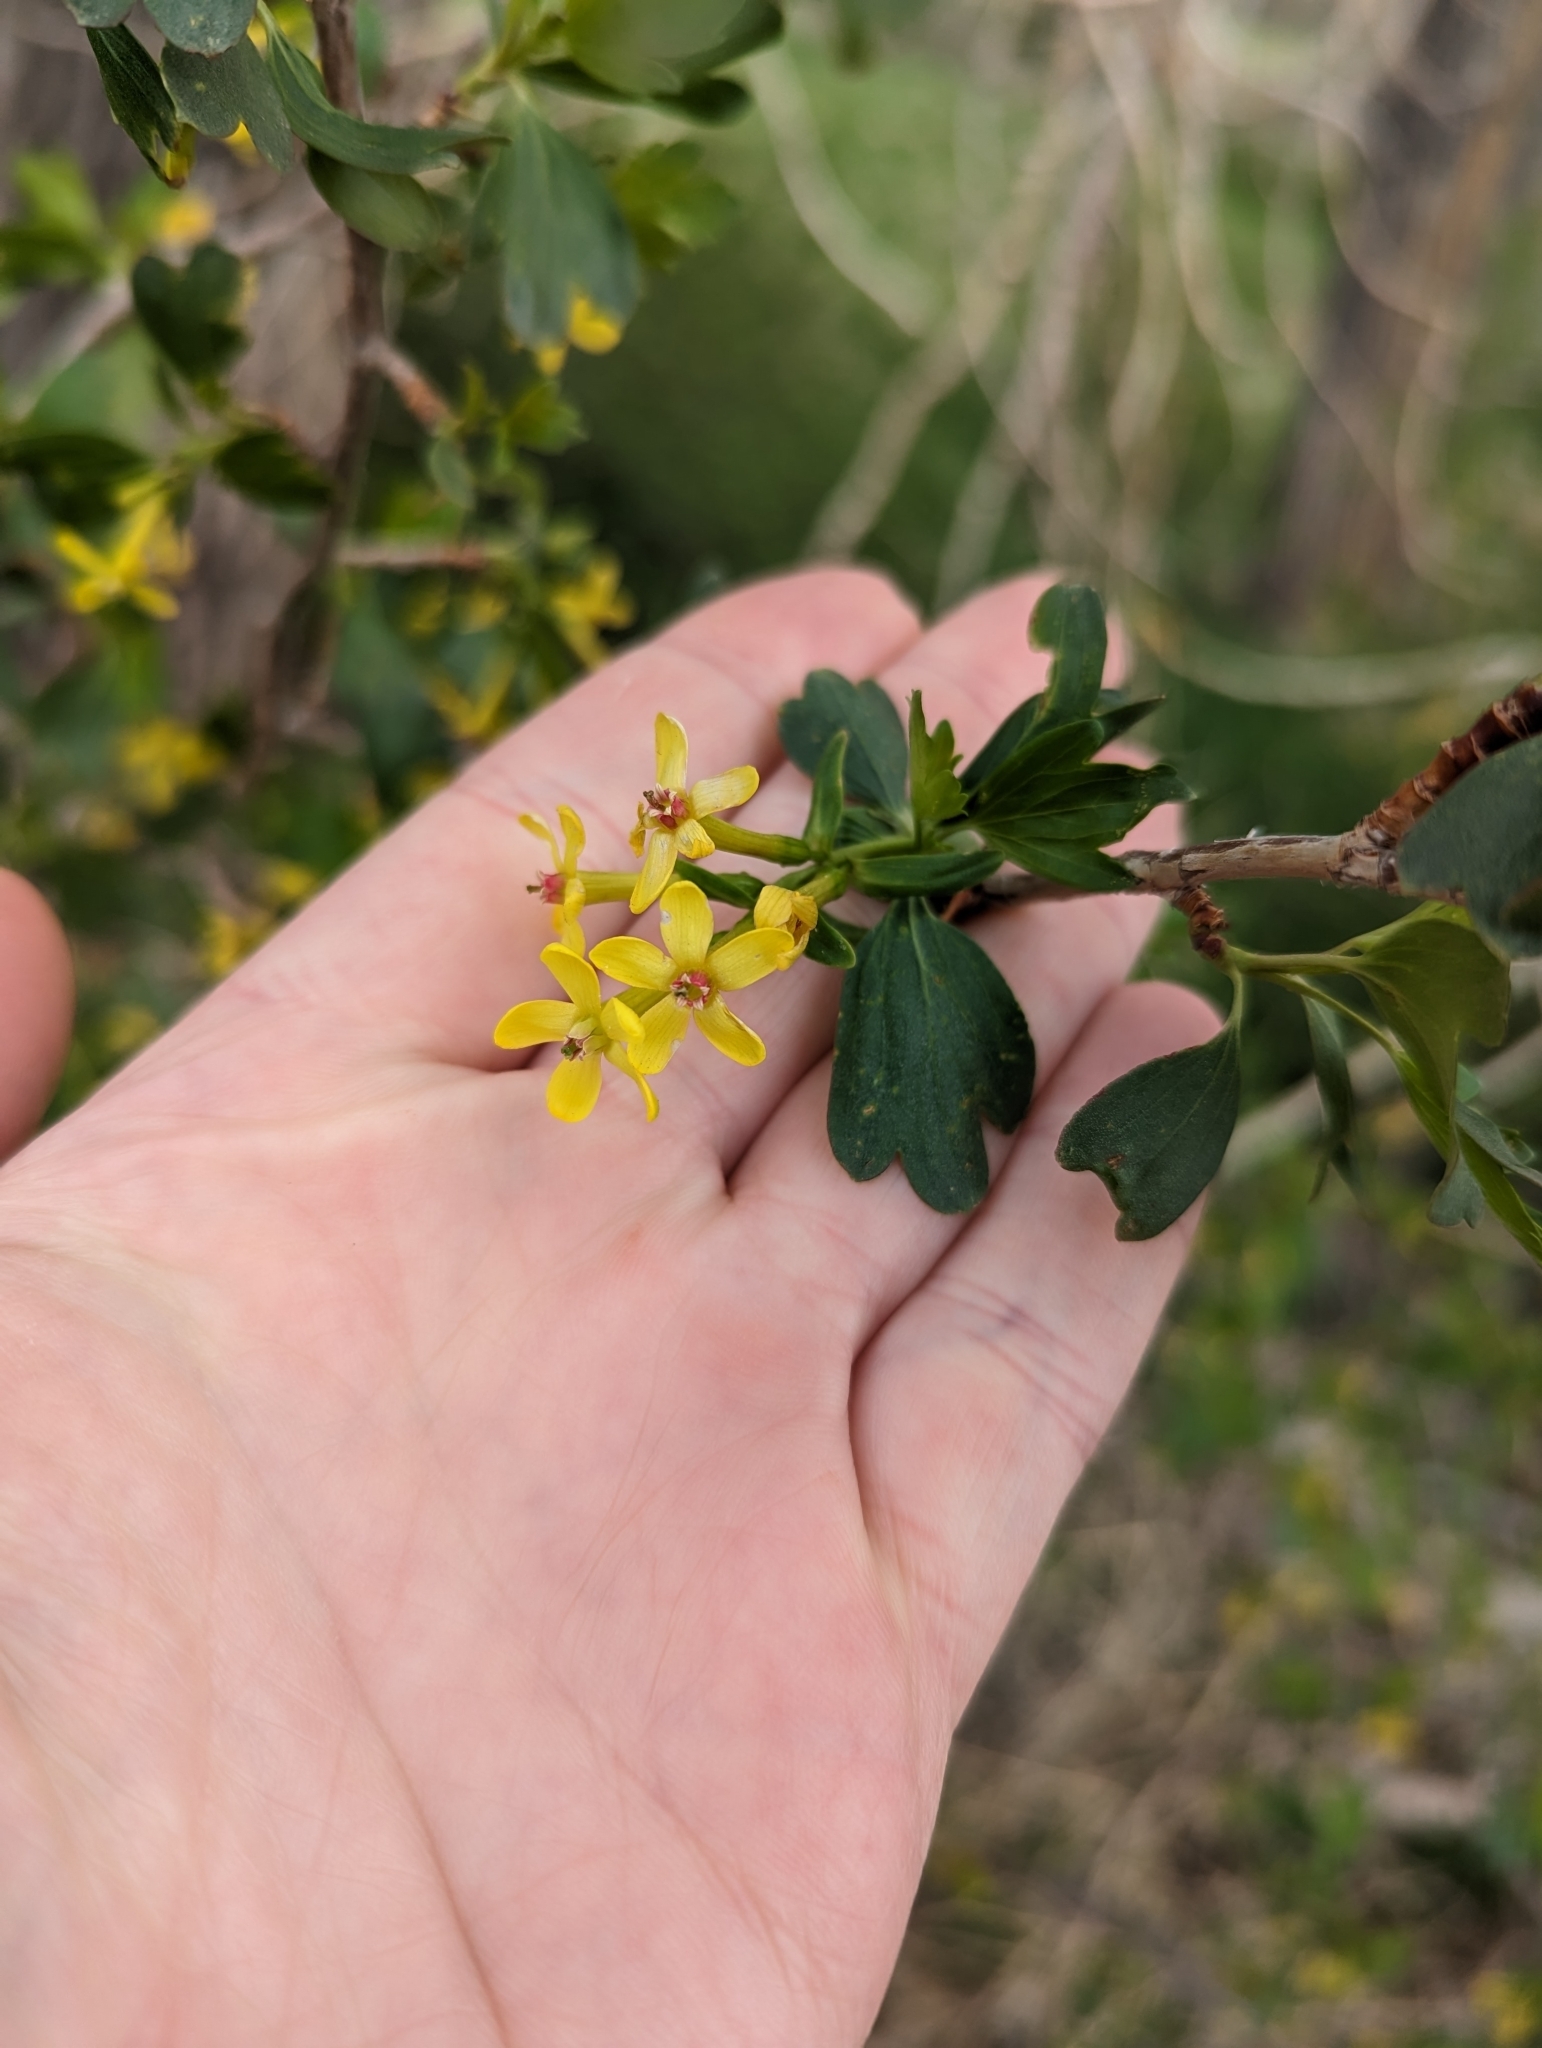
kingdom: Plantae
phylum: Tracheophyta
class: Magnoliopsida
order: Saxifragales
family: Grossulariaceae
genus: Ribes
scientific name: Ribes aureum
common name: Golden currant
